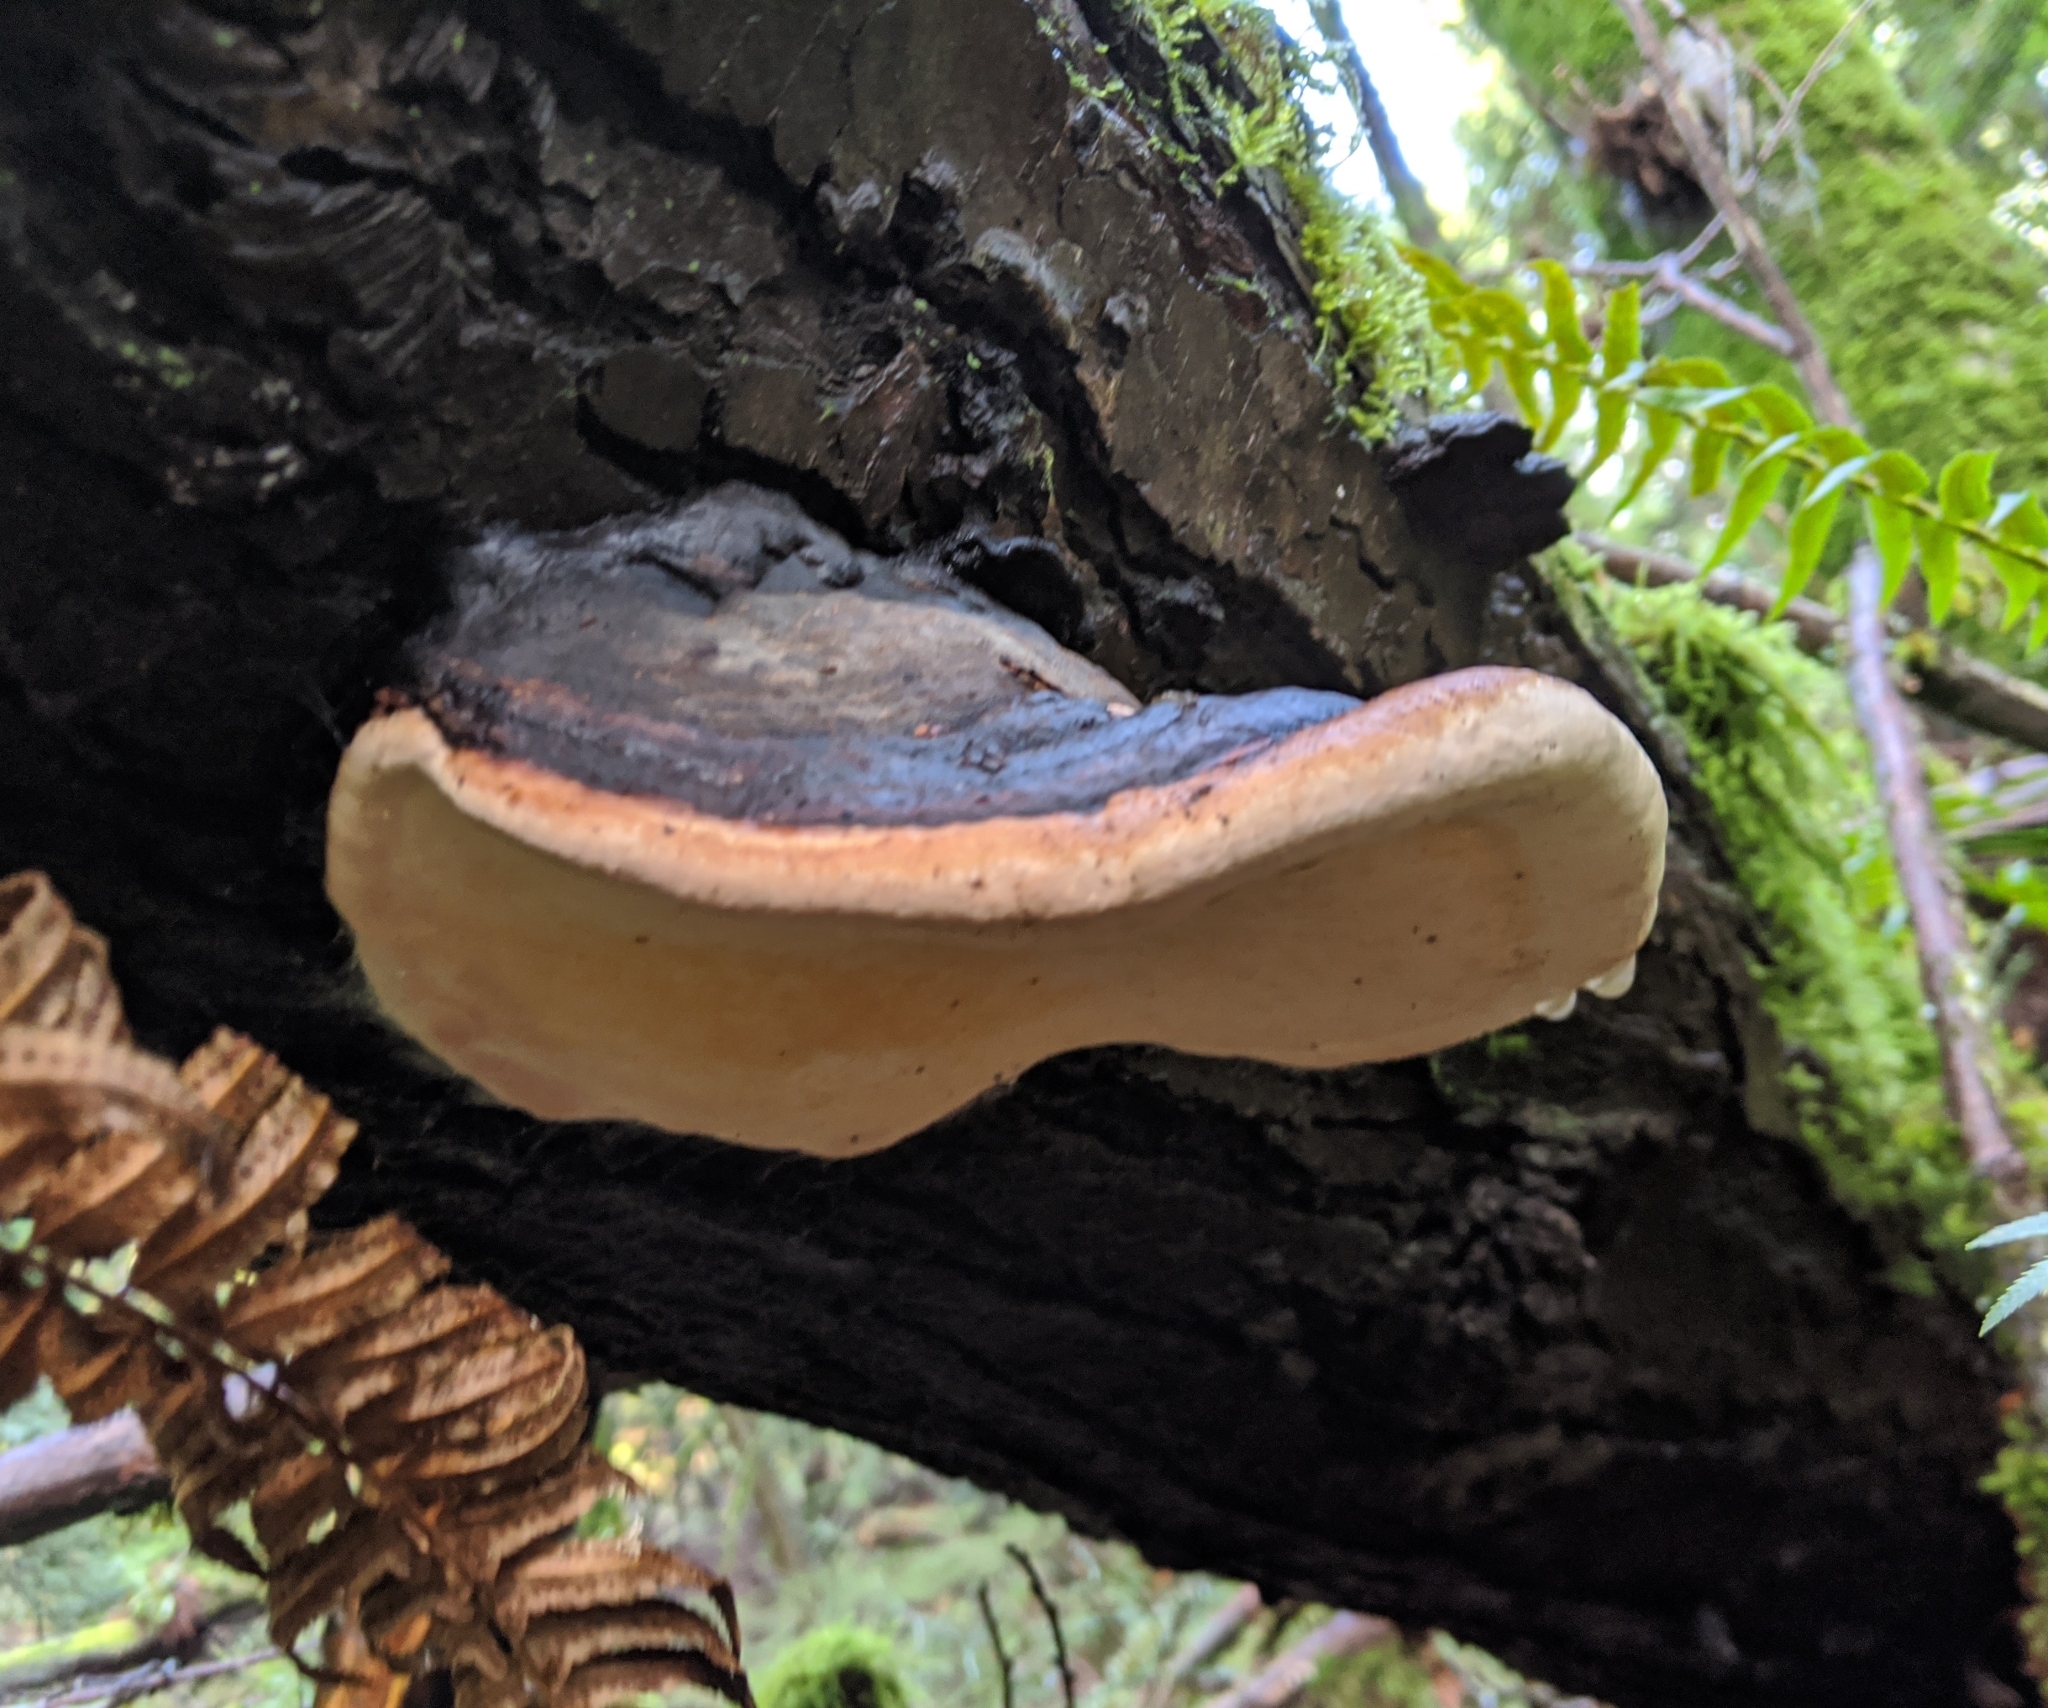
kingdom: Fungi
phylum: Basidiomycota
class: Agaricomycetes
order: Polyporales
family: Fomitopsidaceae
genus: Fomitopsis
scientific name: Fomitopsis mounceae
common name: Northern red belt
